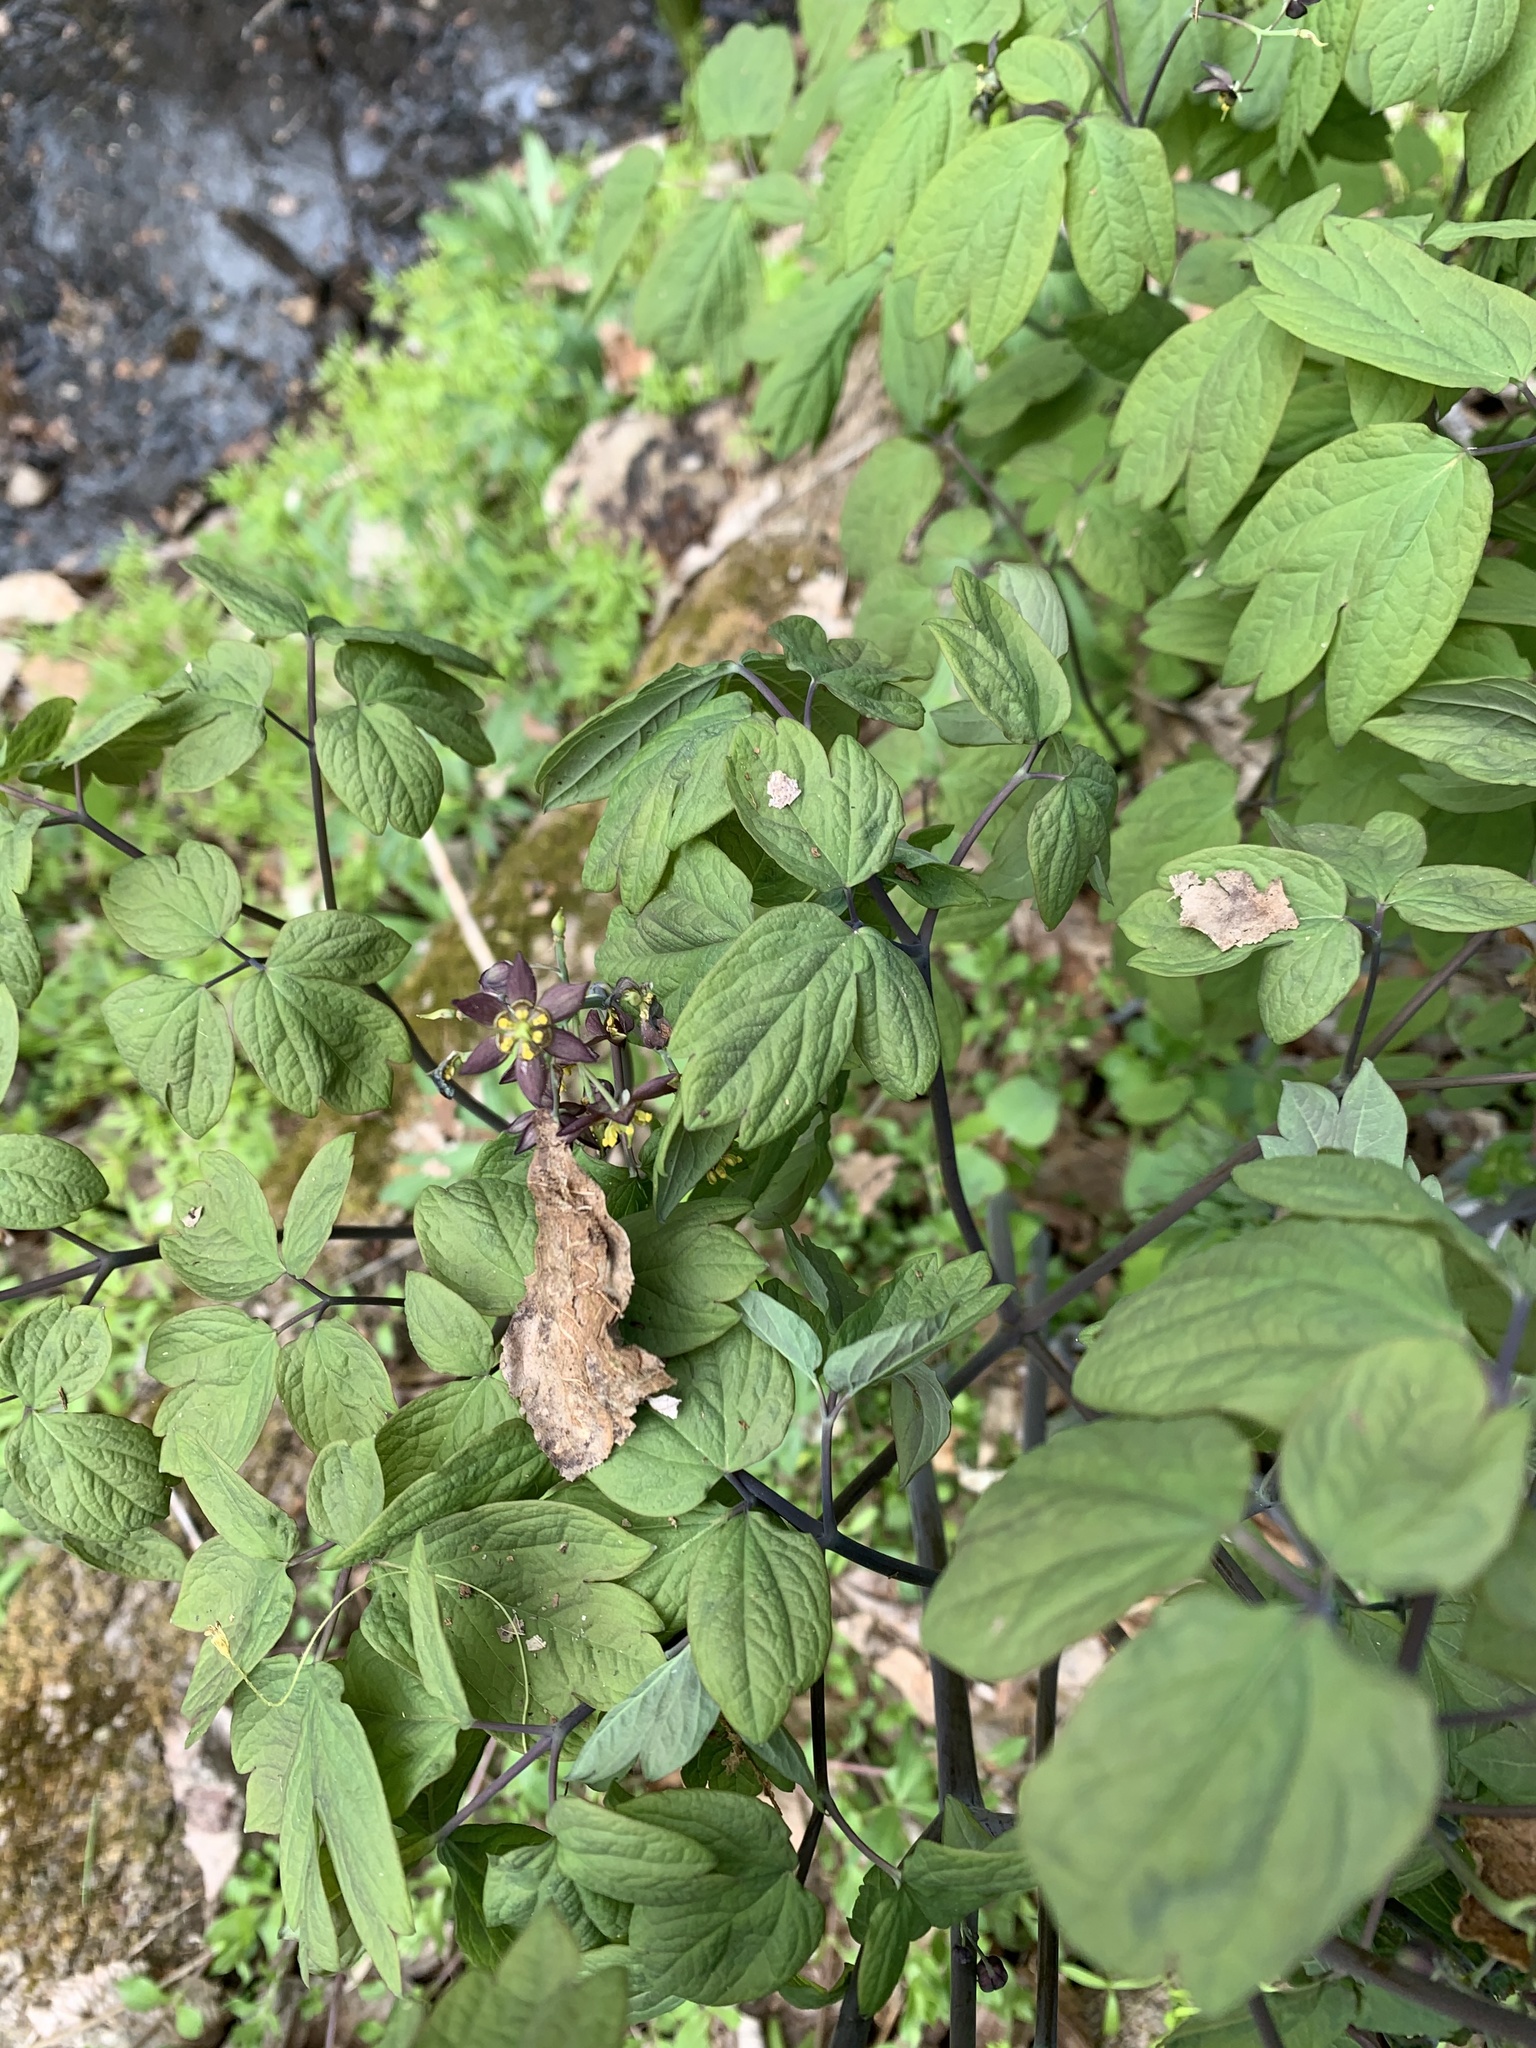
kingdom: Plantae
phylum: Tracheophyta
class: Magnoliopsida
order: Ranunculales
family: Berberidaceae
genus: Caulophyllum
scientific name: Caulophyllum giganteum
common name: Blue cohosh
